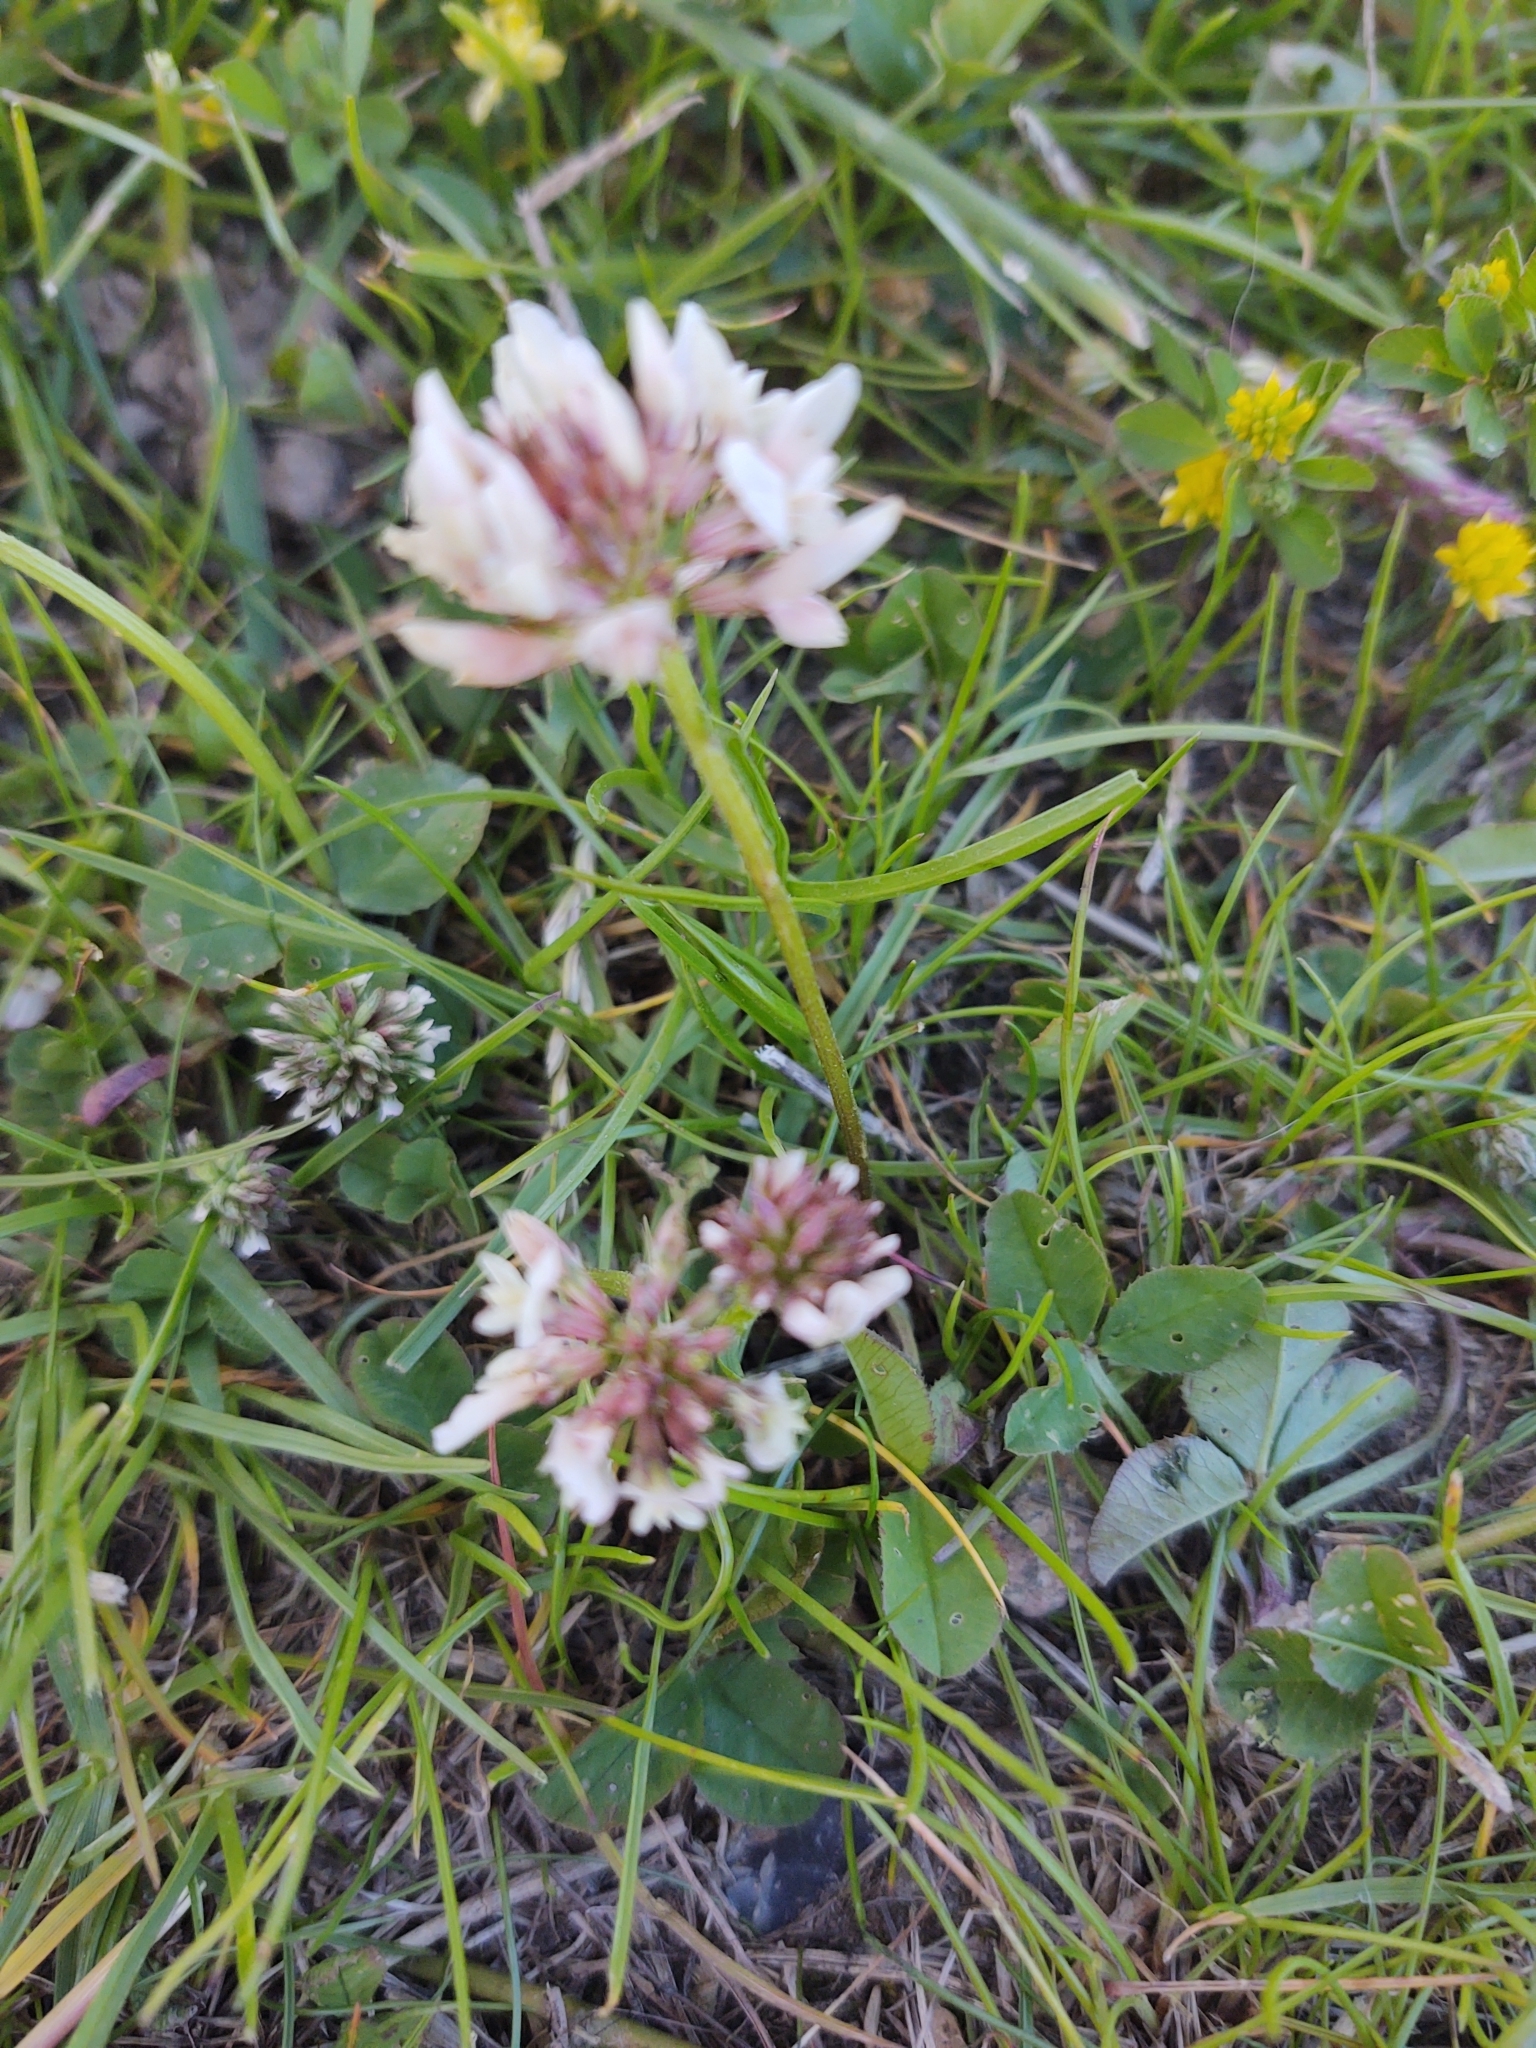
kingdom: Plantae
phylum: Tracheophyta
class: Magnoliopsida
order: Fabales
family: Fabaceae
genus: Trifolium
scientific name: Trifolium repens
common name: White clover
